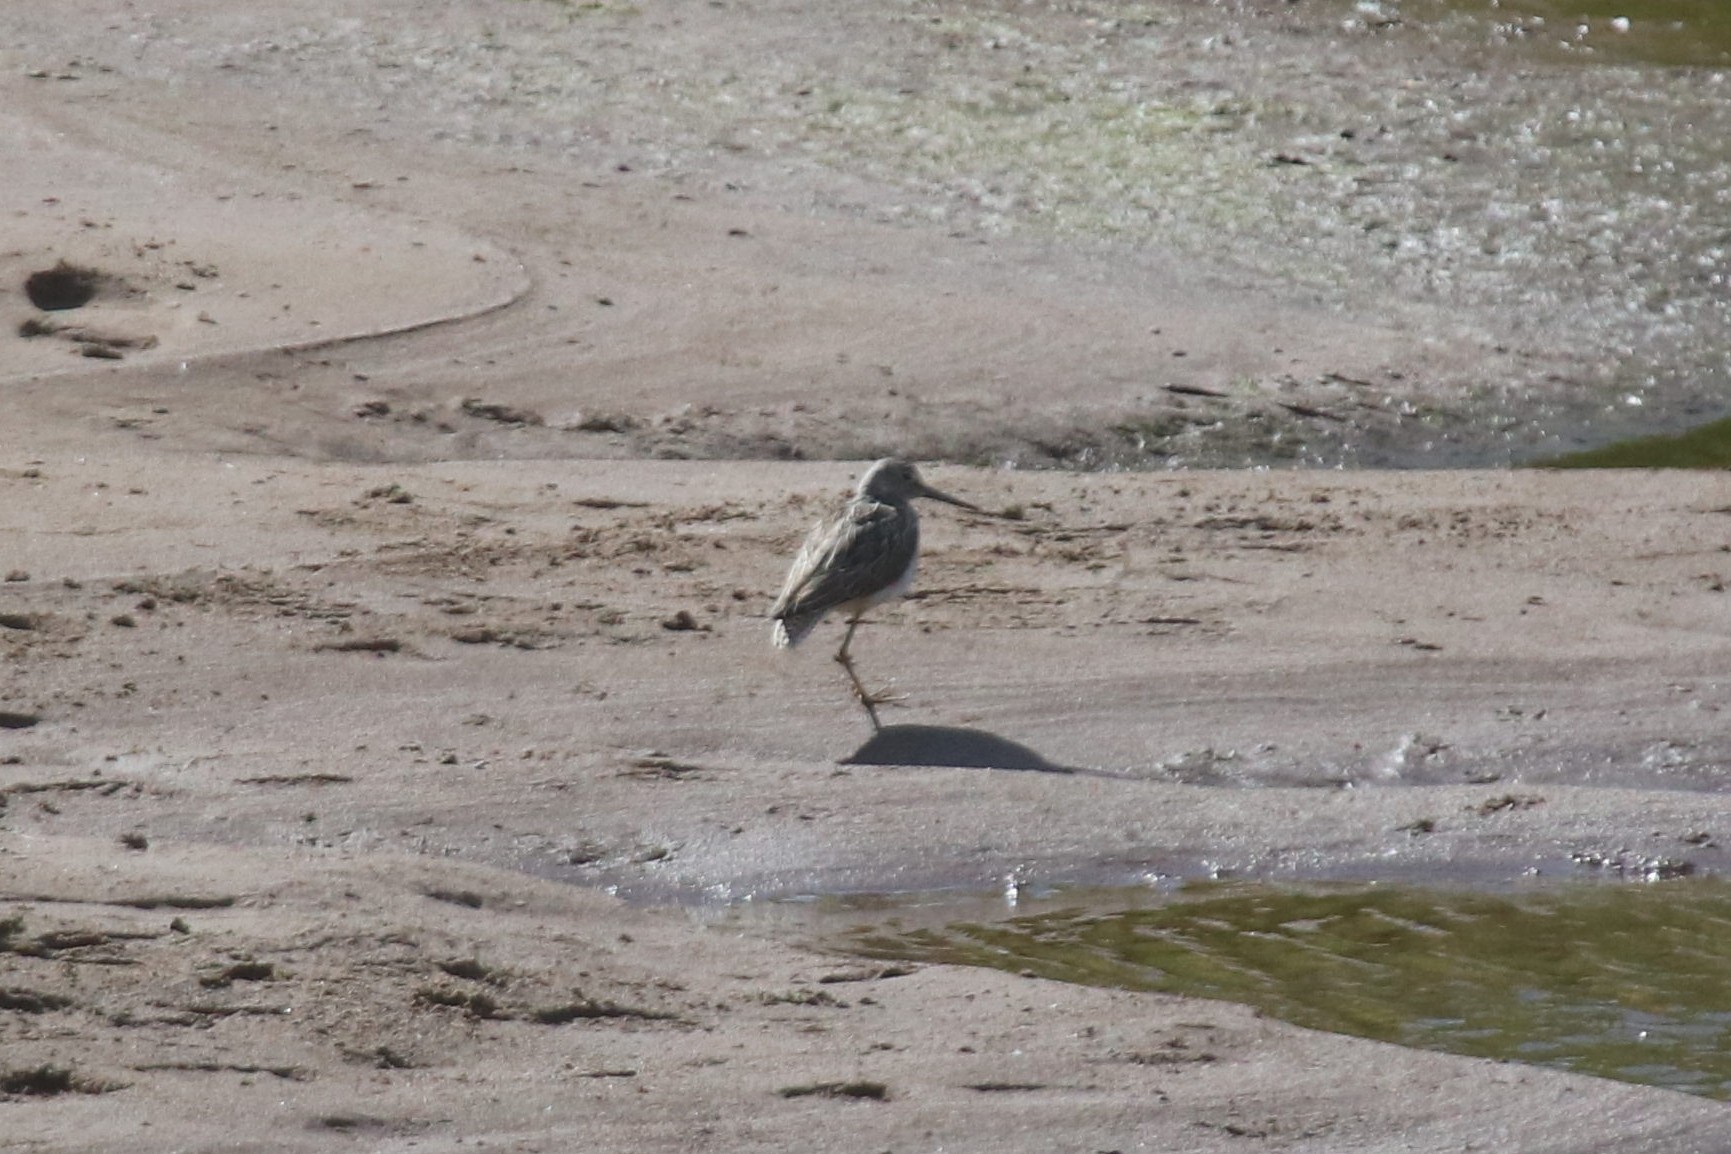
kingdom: Animalia
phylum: Chordata
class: Aves
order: Charadriiformes
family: Scolopacidae
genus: Tringa
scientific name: Tringa nebularia
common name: Common greenshank
